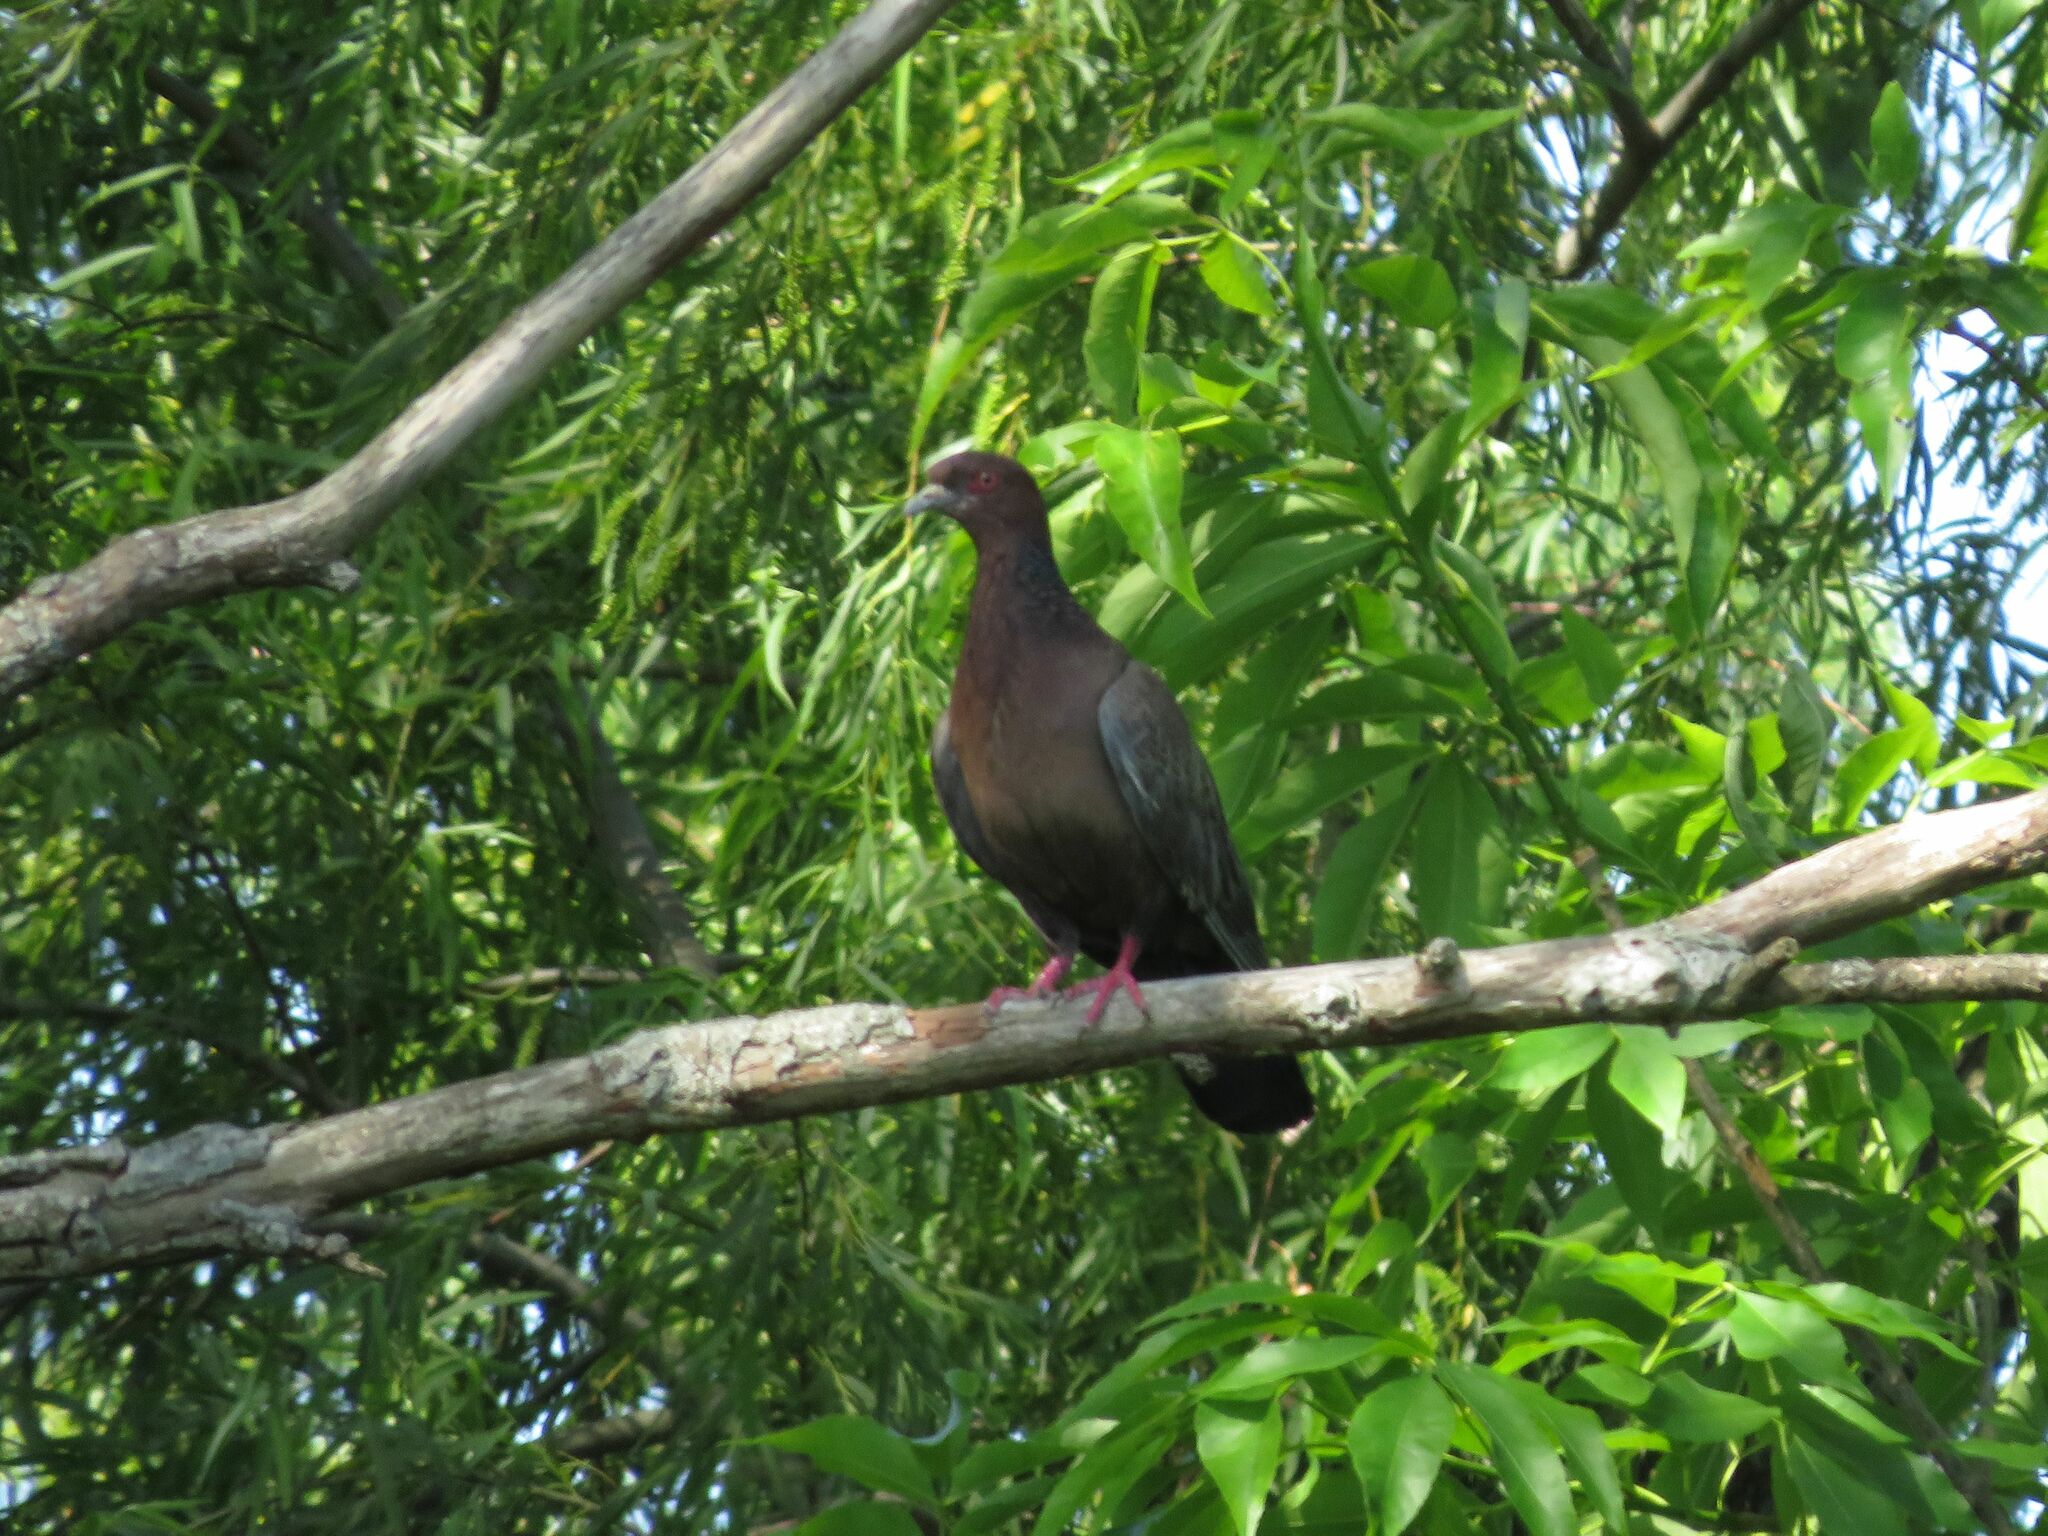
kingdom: Animalia
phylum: Chordata
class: Aves
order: Columbiformes
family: Columbidae
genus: Patagioenas
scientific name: Patagioenas picazuro
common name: Picazuro pigeon
